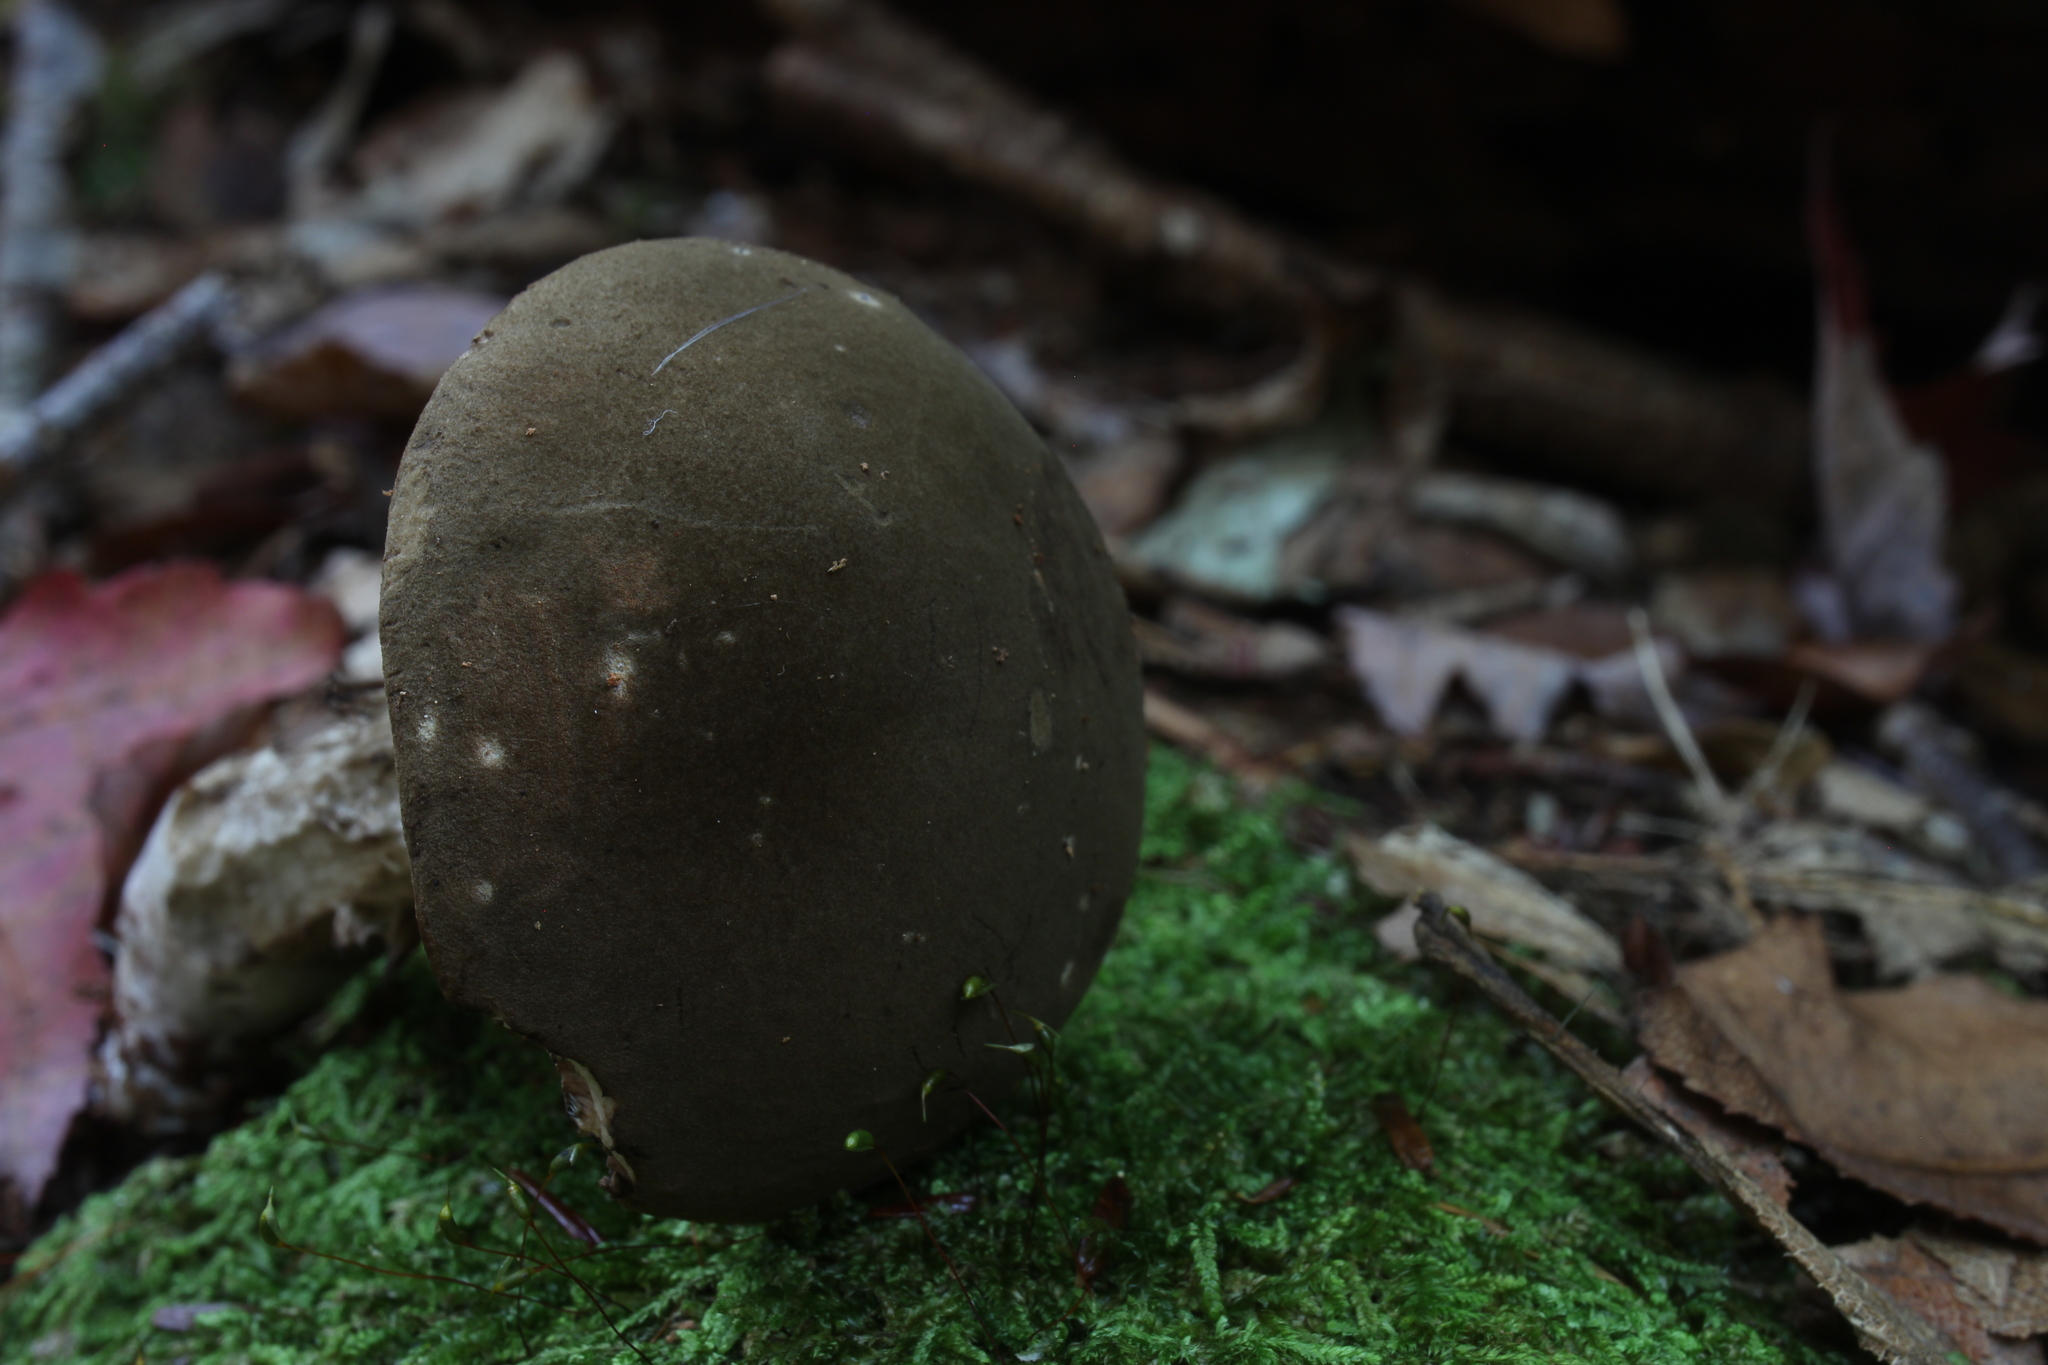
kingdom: Fungi
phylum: Basidiomycota
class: Agaricomycetes
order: Boletales
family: Boletaceae
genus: Porphyrellus
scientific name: Porphyrellus porphyrosporus
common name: Dusky bolete
